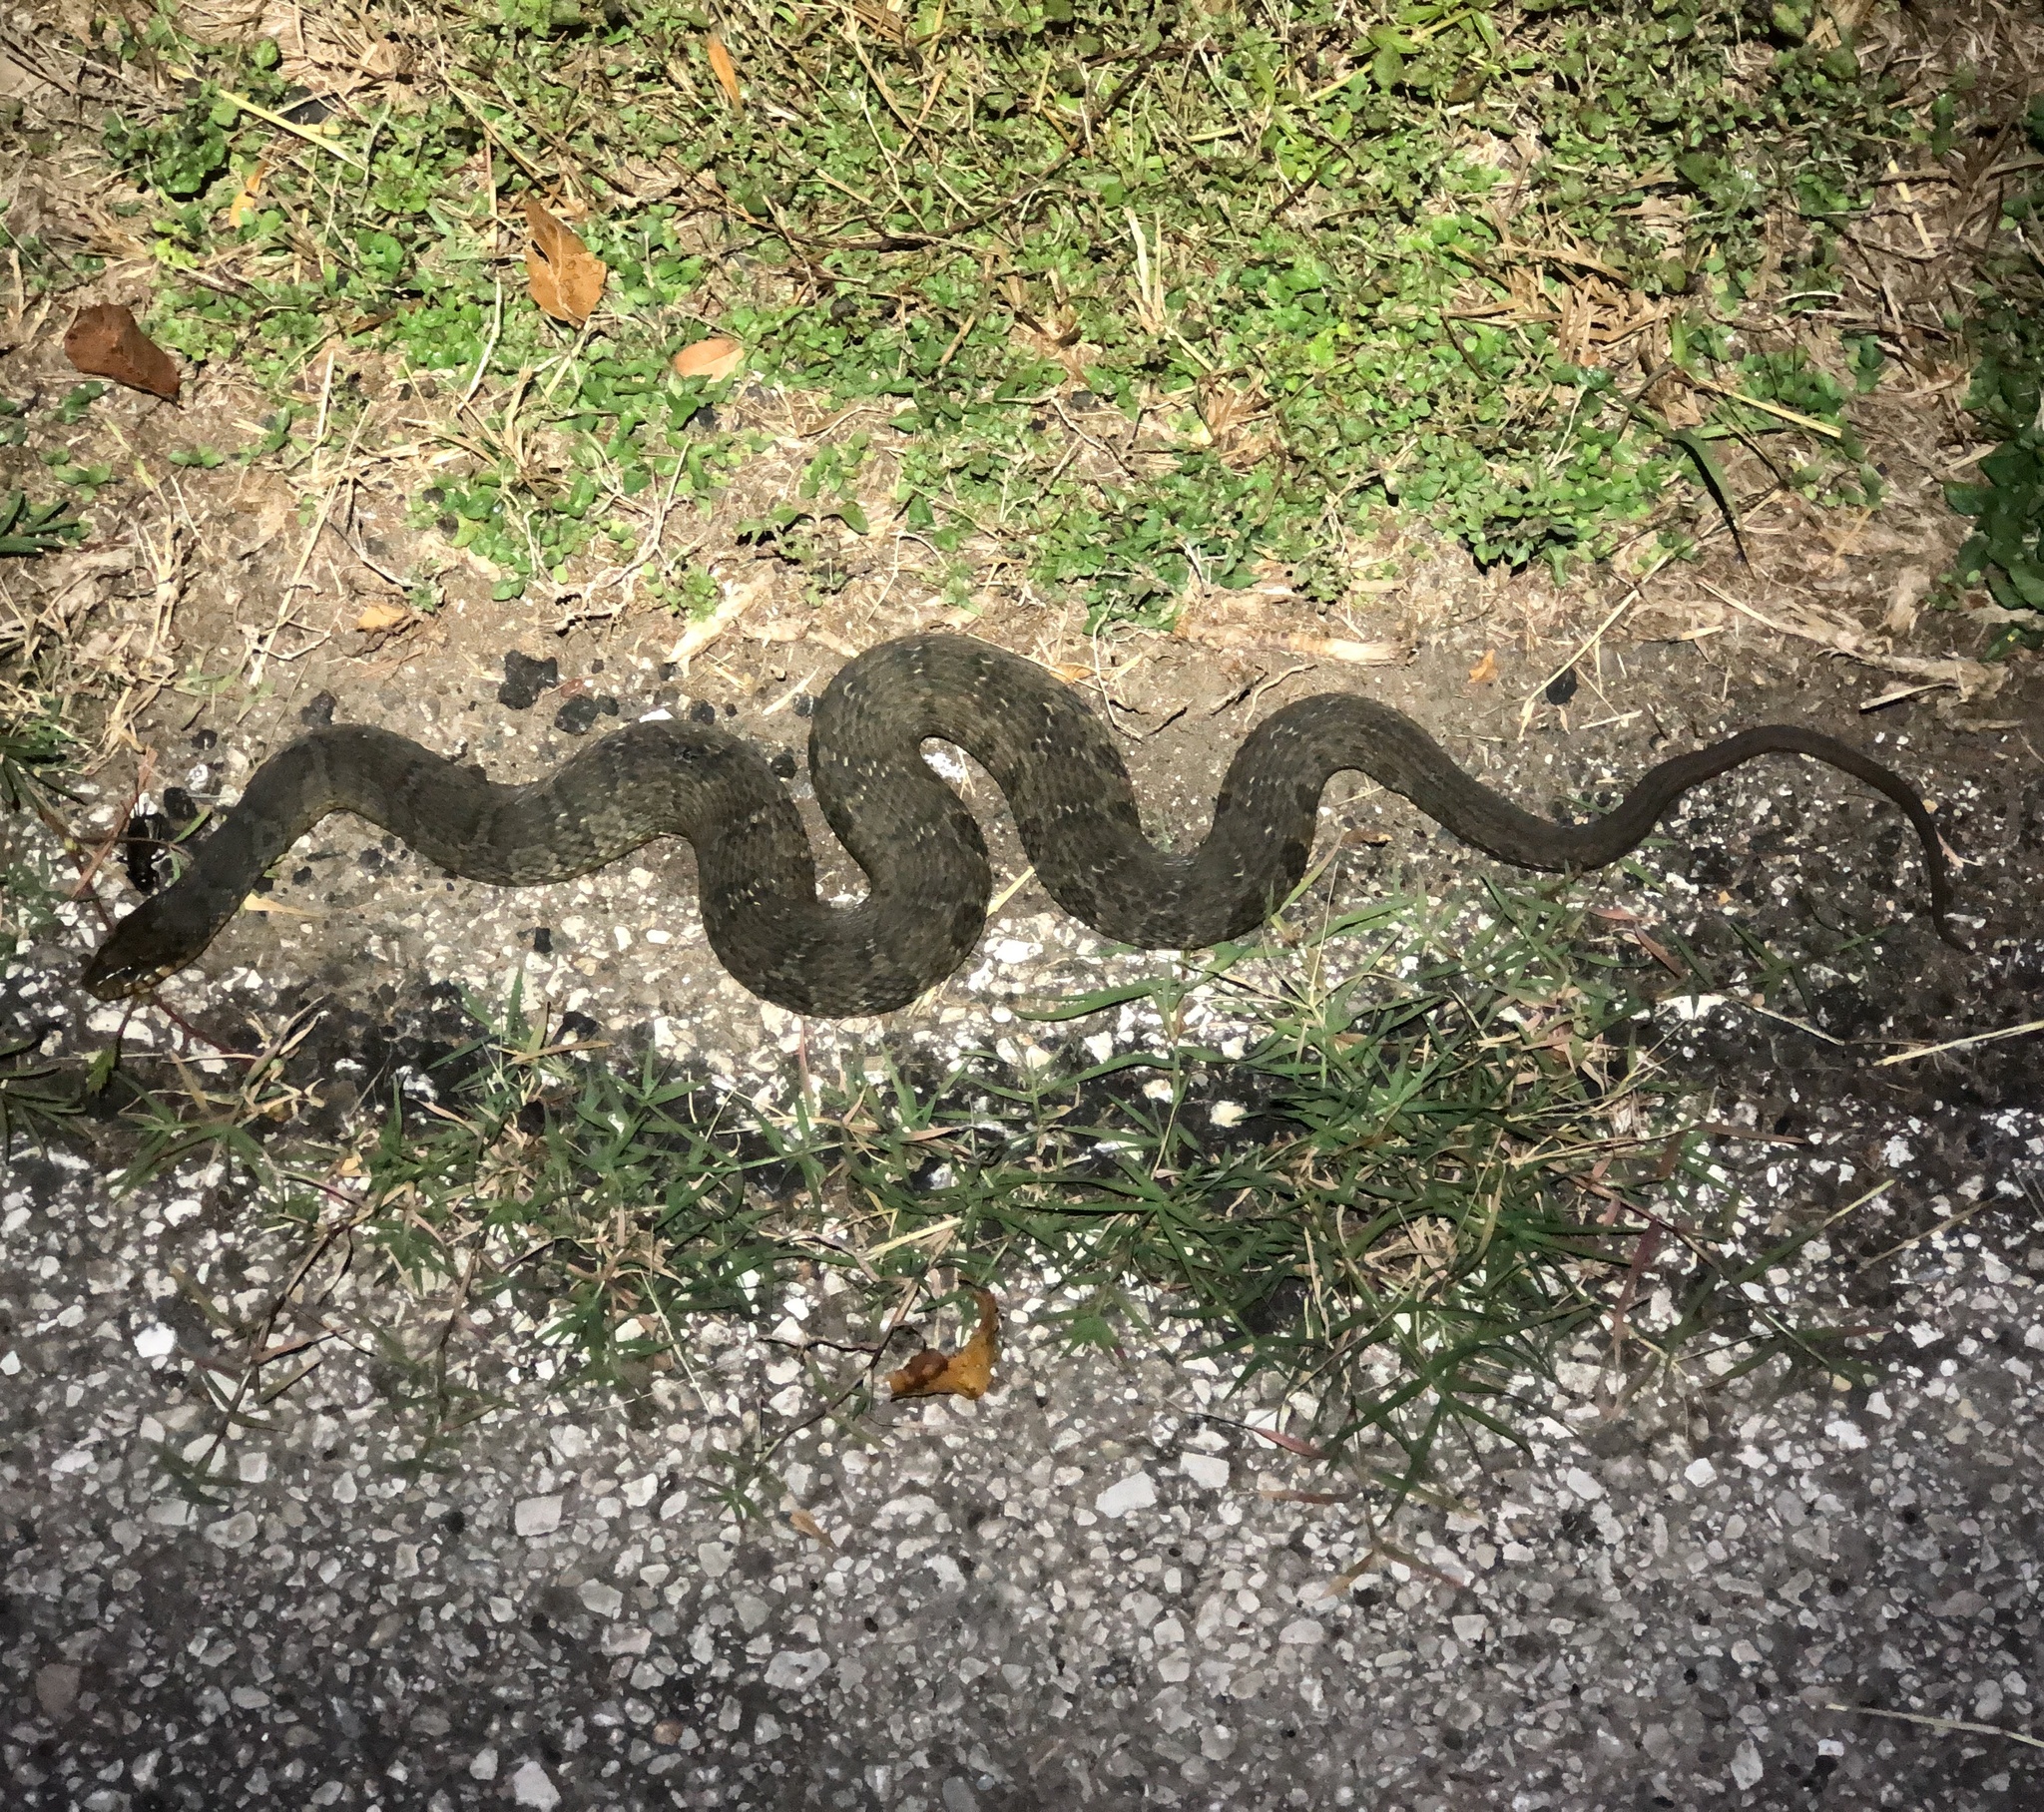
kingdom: Animalia
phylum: Chordata
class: Squamata
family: Colubridae
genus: Nerodia
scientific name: Nerodia erythrogaster
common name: Plainbelly water snake
